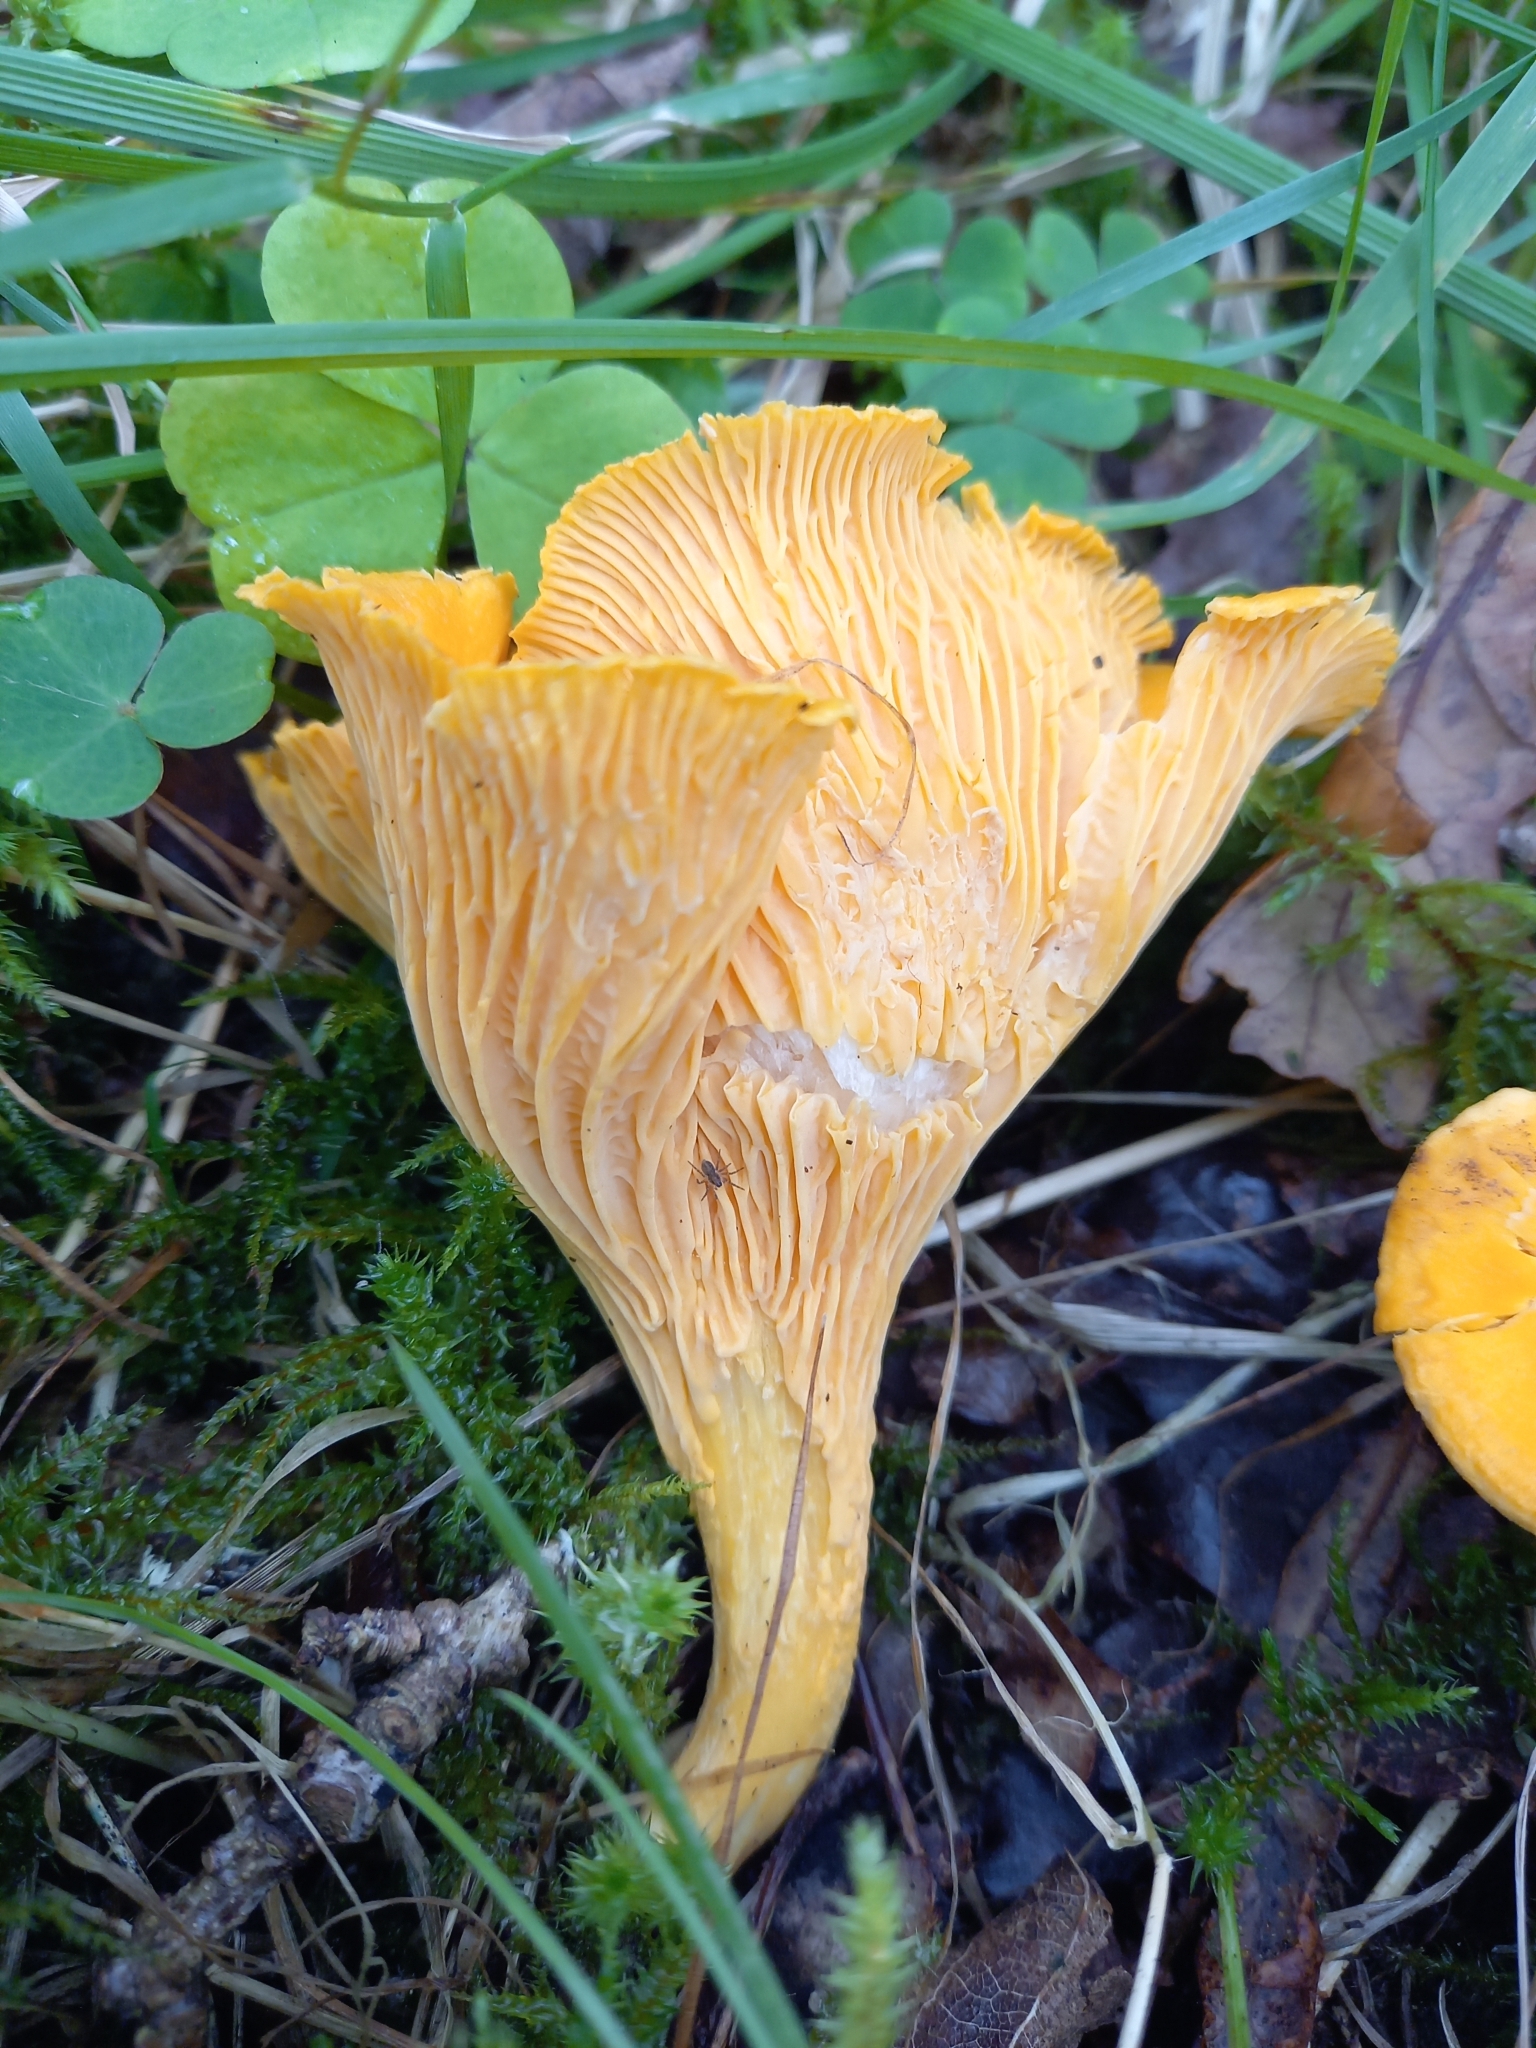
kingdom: Fungi
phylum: Basidiomycota
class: Agaricomycetes
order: Cantharellales
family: Hydnaceae
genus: Cantharellus
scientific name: Cantharellus cibarius
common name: Chanterelle
